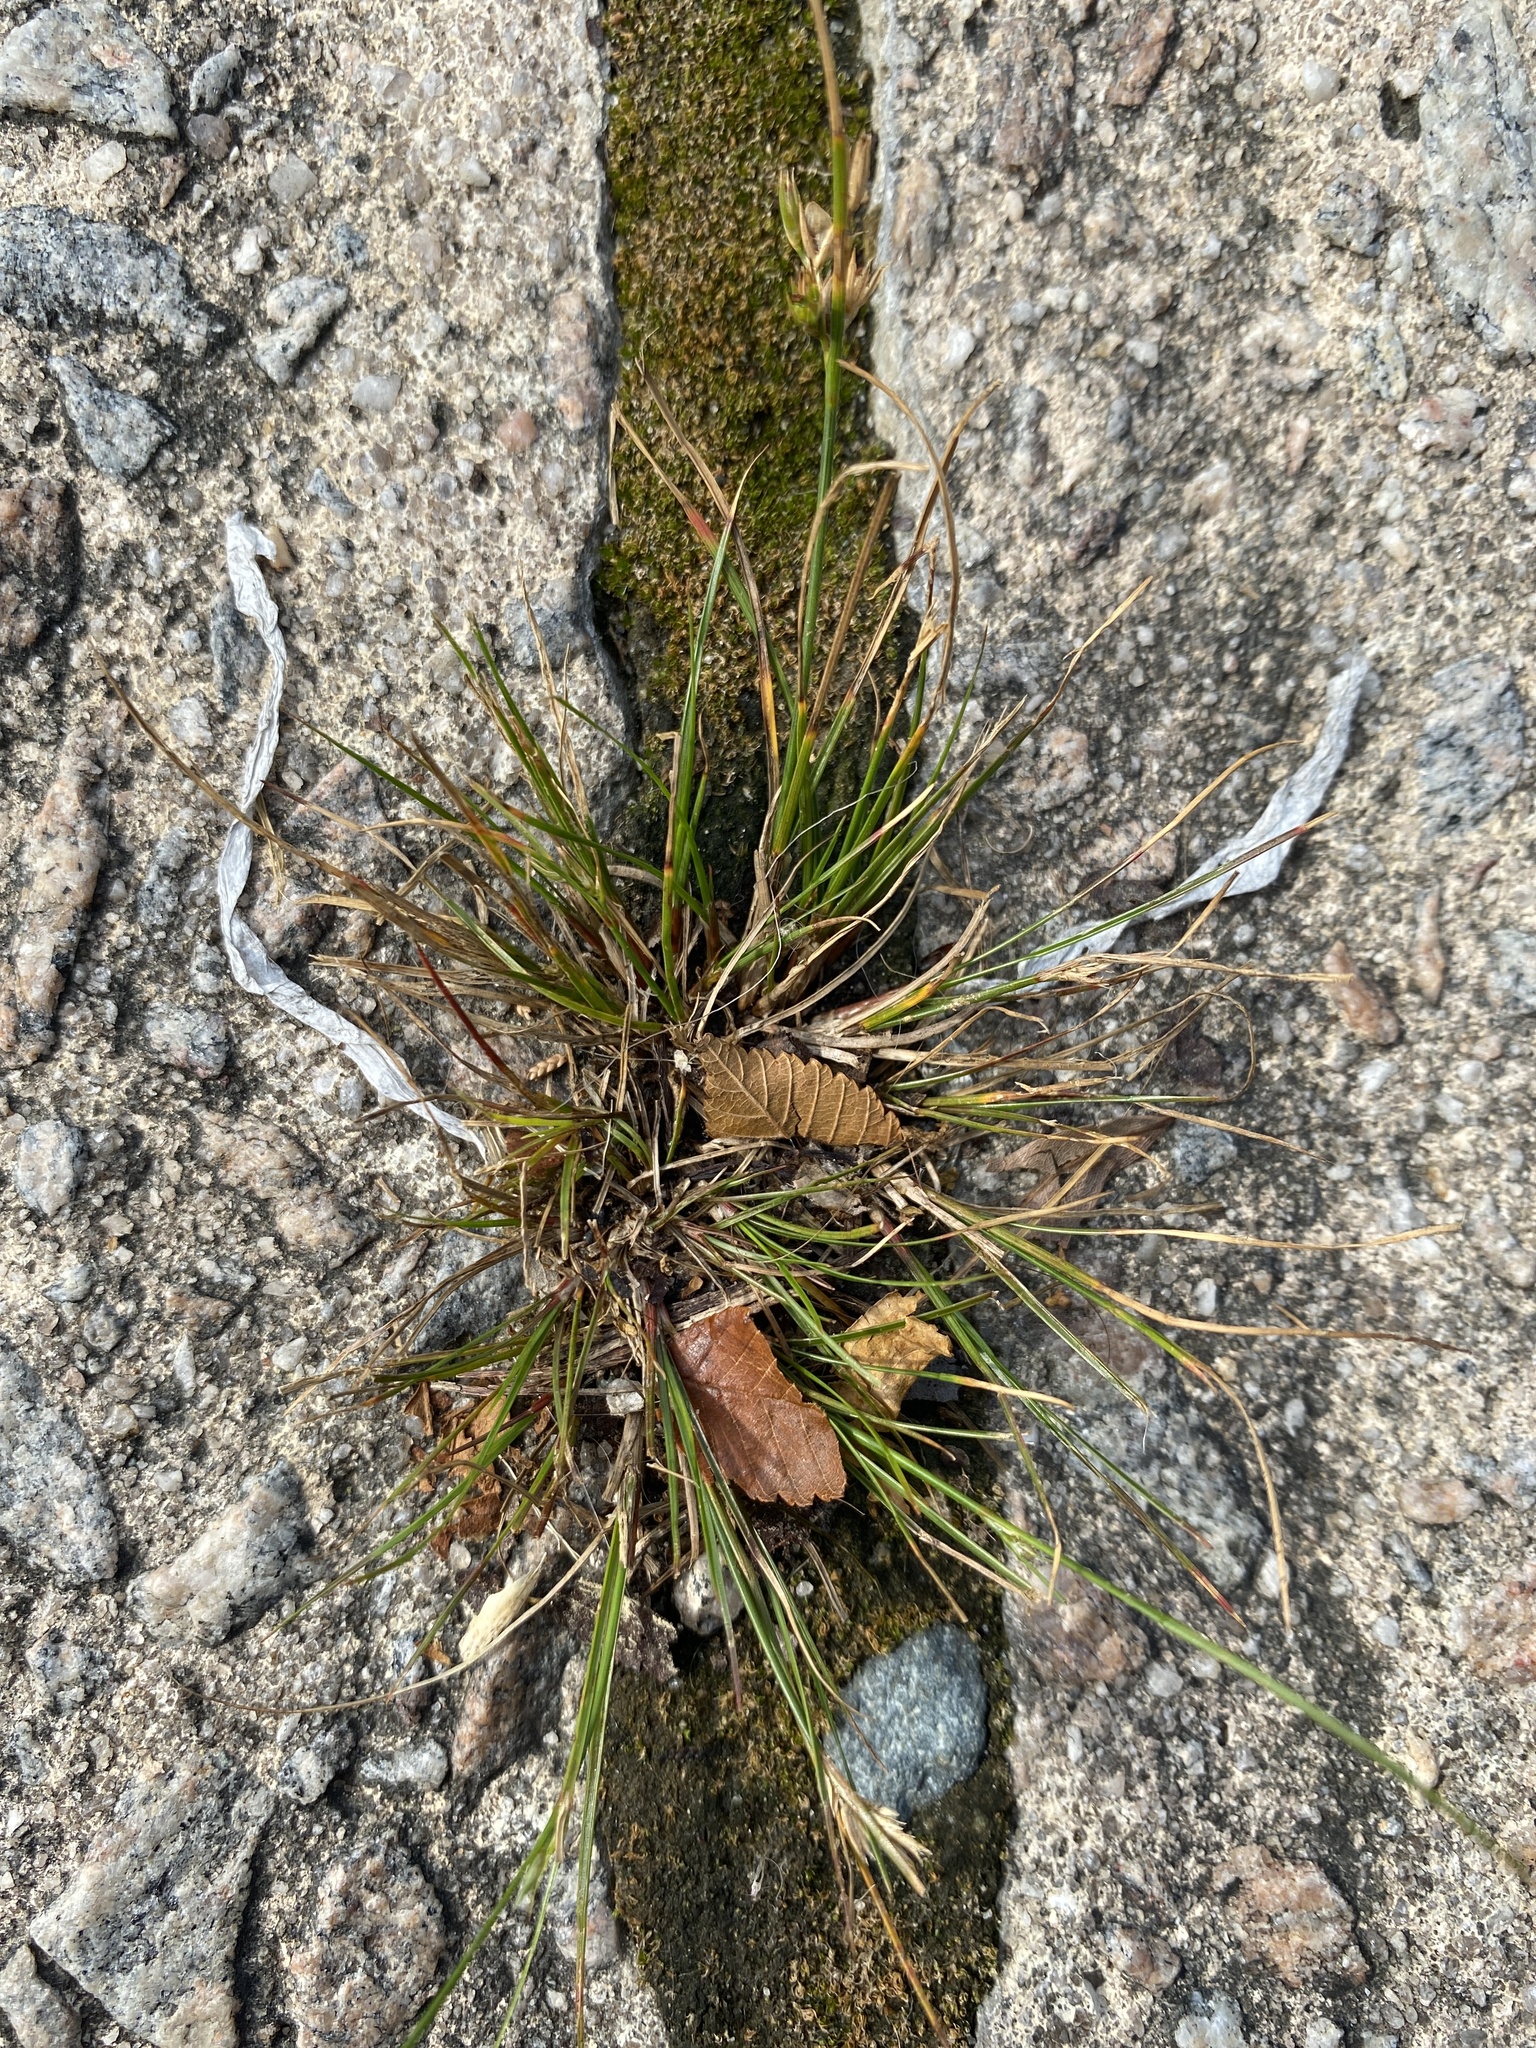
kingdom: Plantae
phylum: Tracheophyta
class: Liliopsida
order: Poales
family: Juncaceae
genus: Juncus
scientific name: Juncus tenuis
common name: Slender rush
